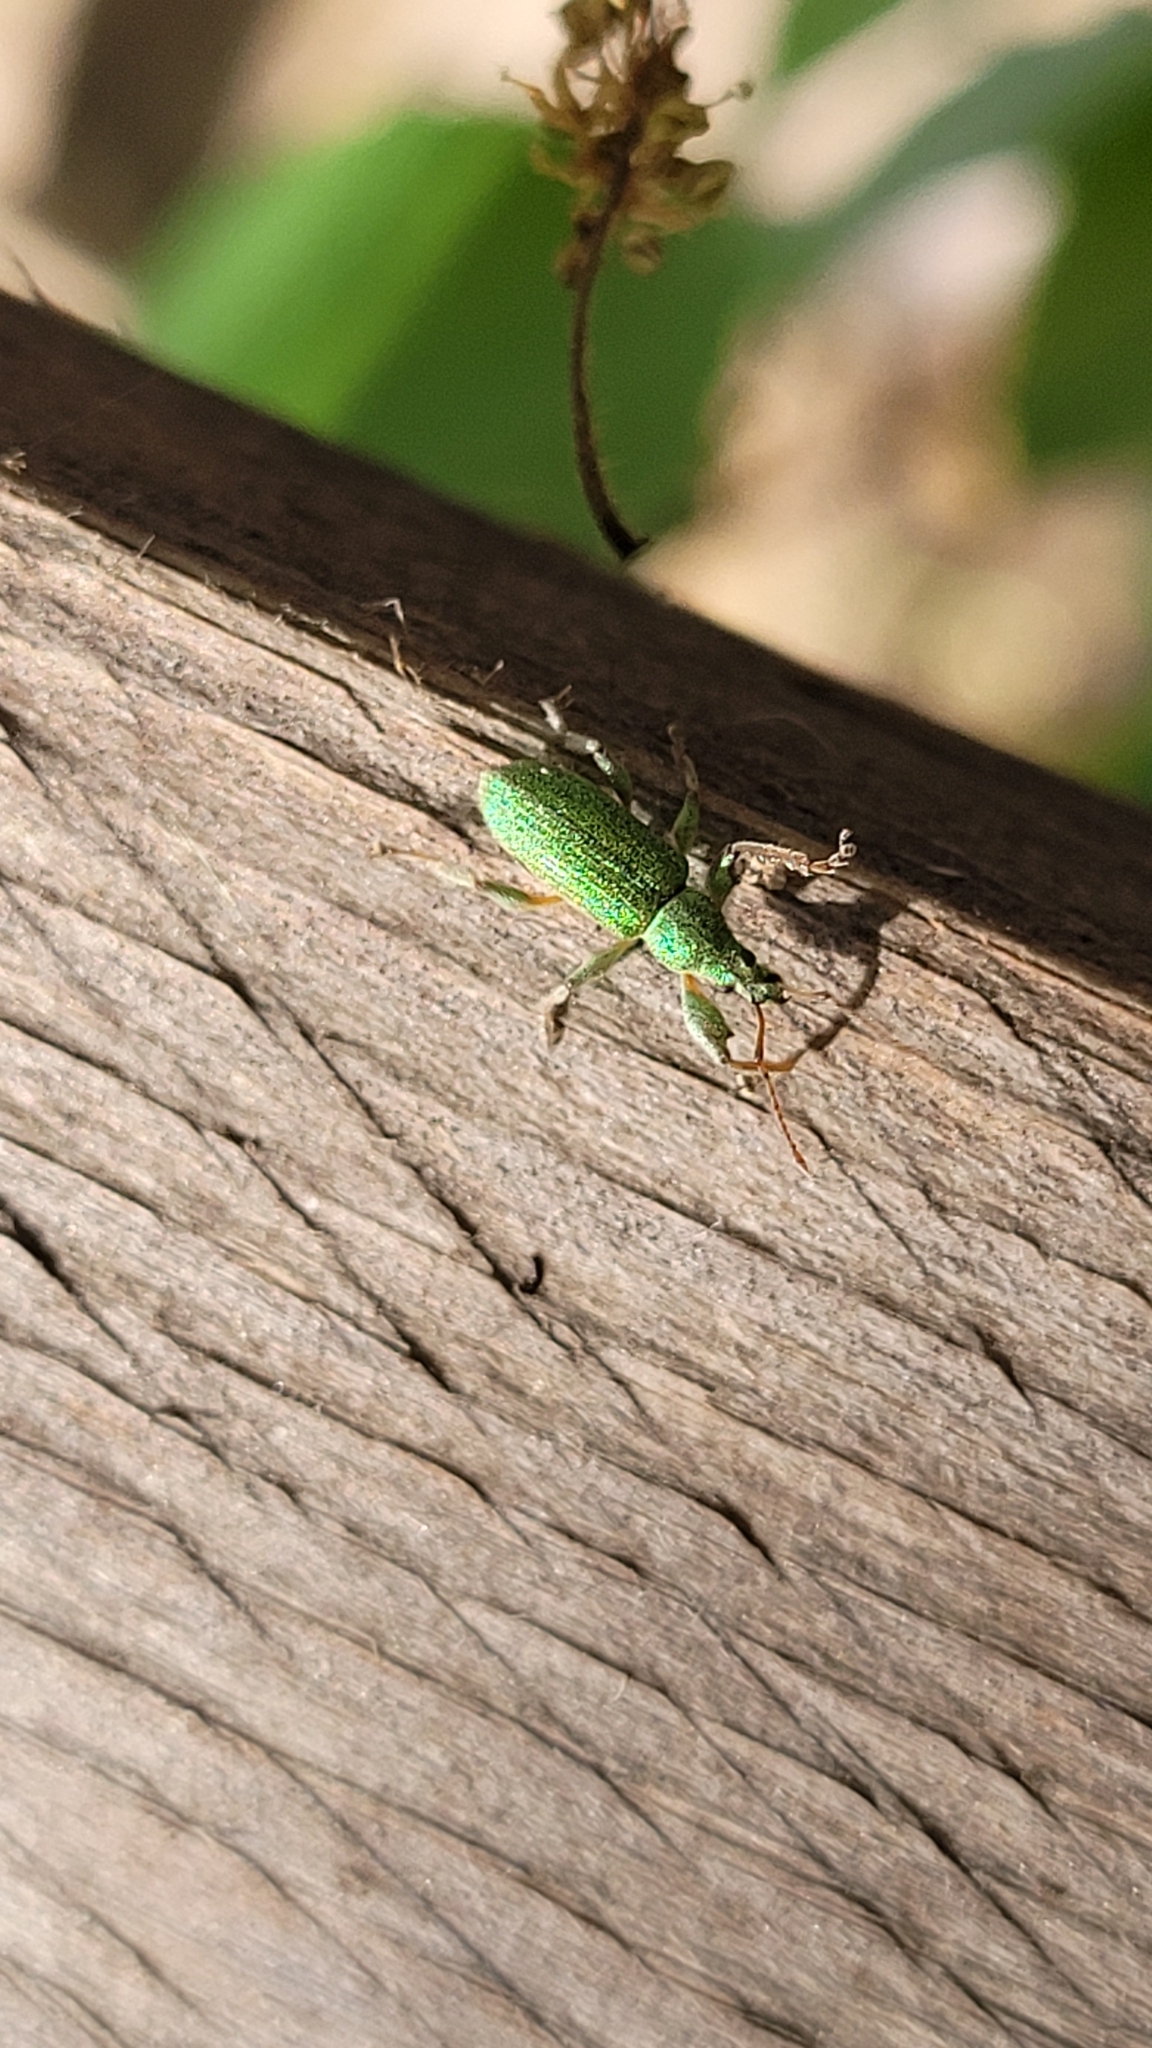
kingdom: Animalia
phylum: Arthropoda
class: Insecta
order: Coleoptera
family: Curculionidae
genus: Phyllobius
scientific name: Phyllobius arborator
